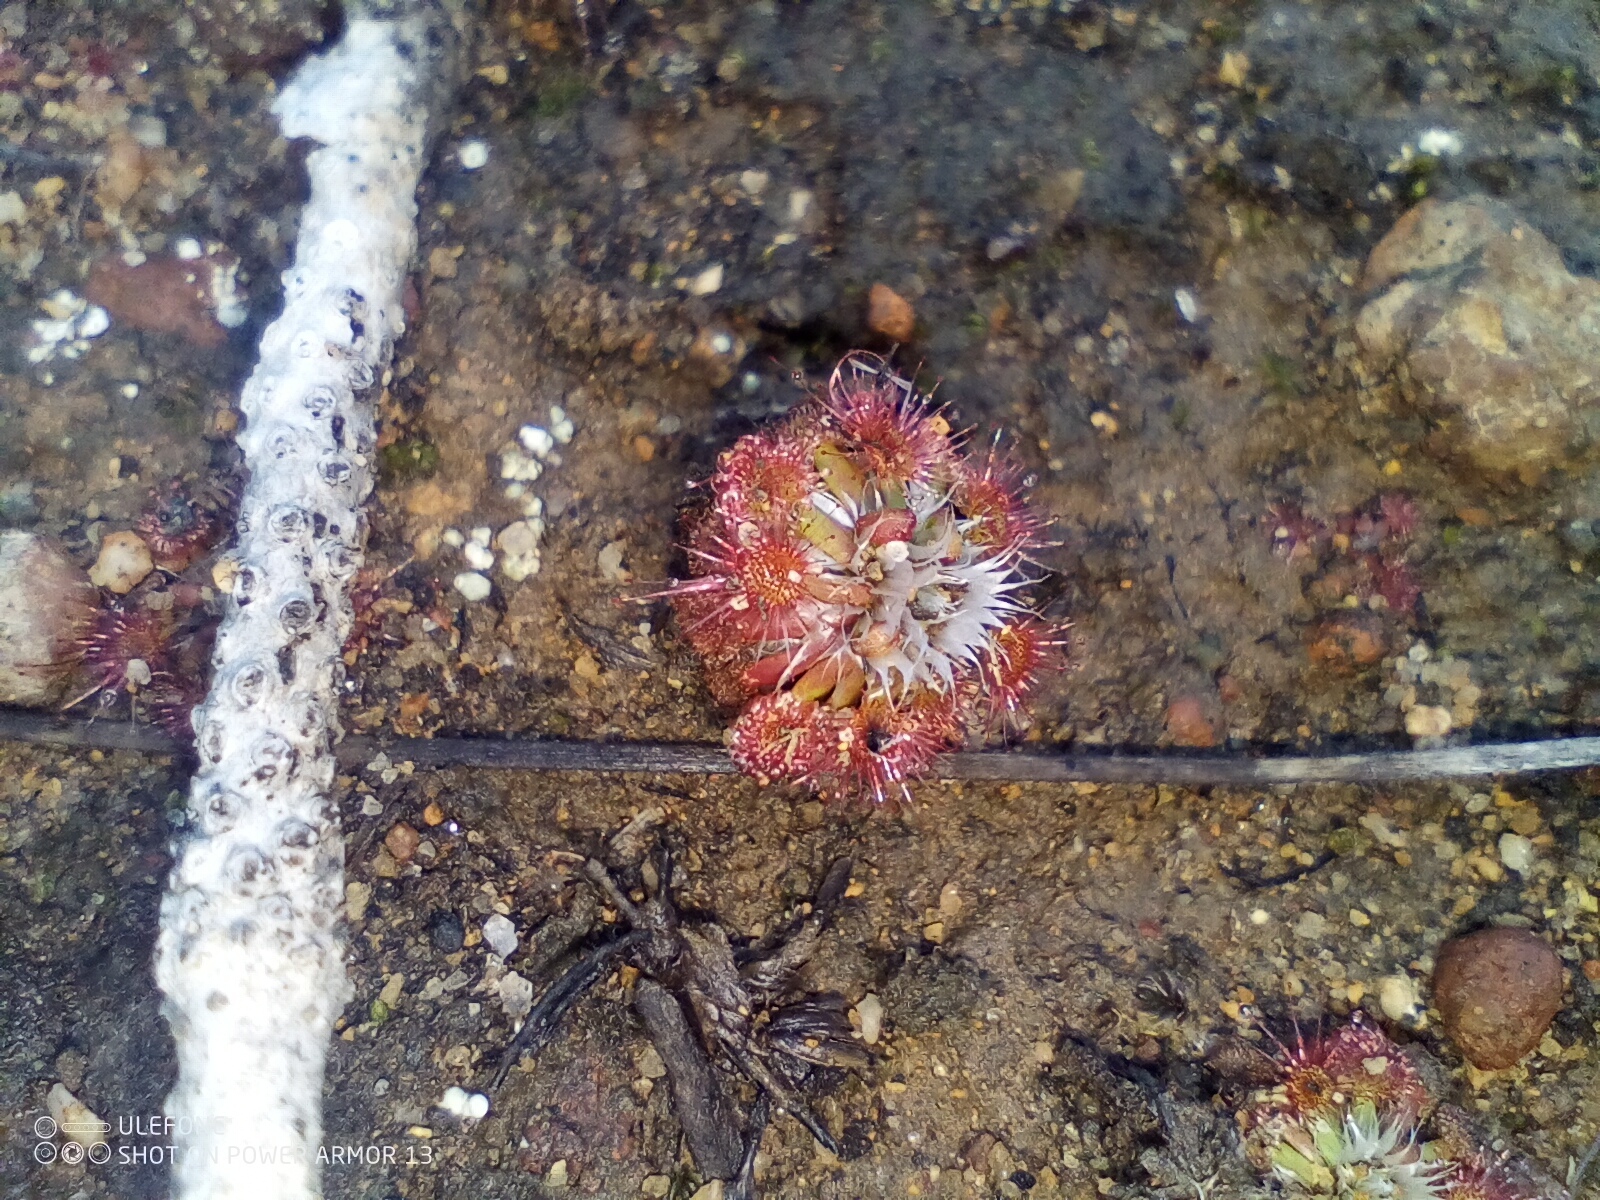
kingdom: Plantae
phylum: Tracheophyta
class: Magnoliopsida
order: Caryophyllales
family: Droseraceae
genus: Drosera
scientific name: Drosera spilos
